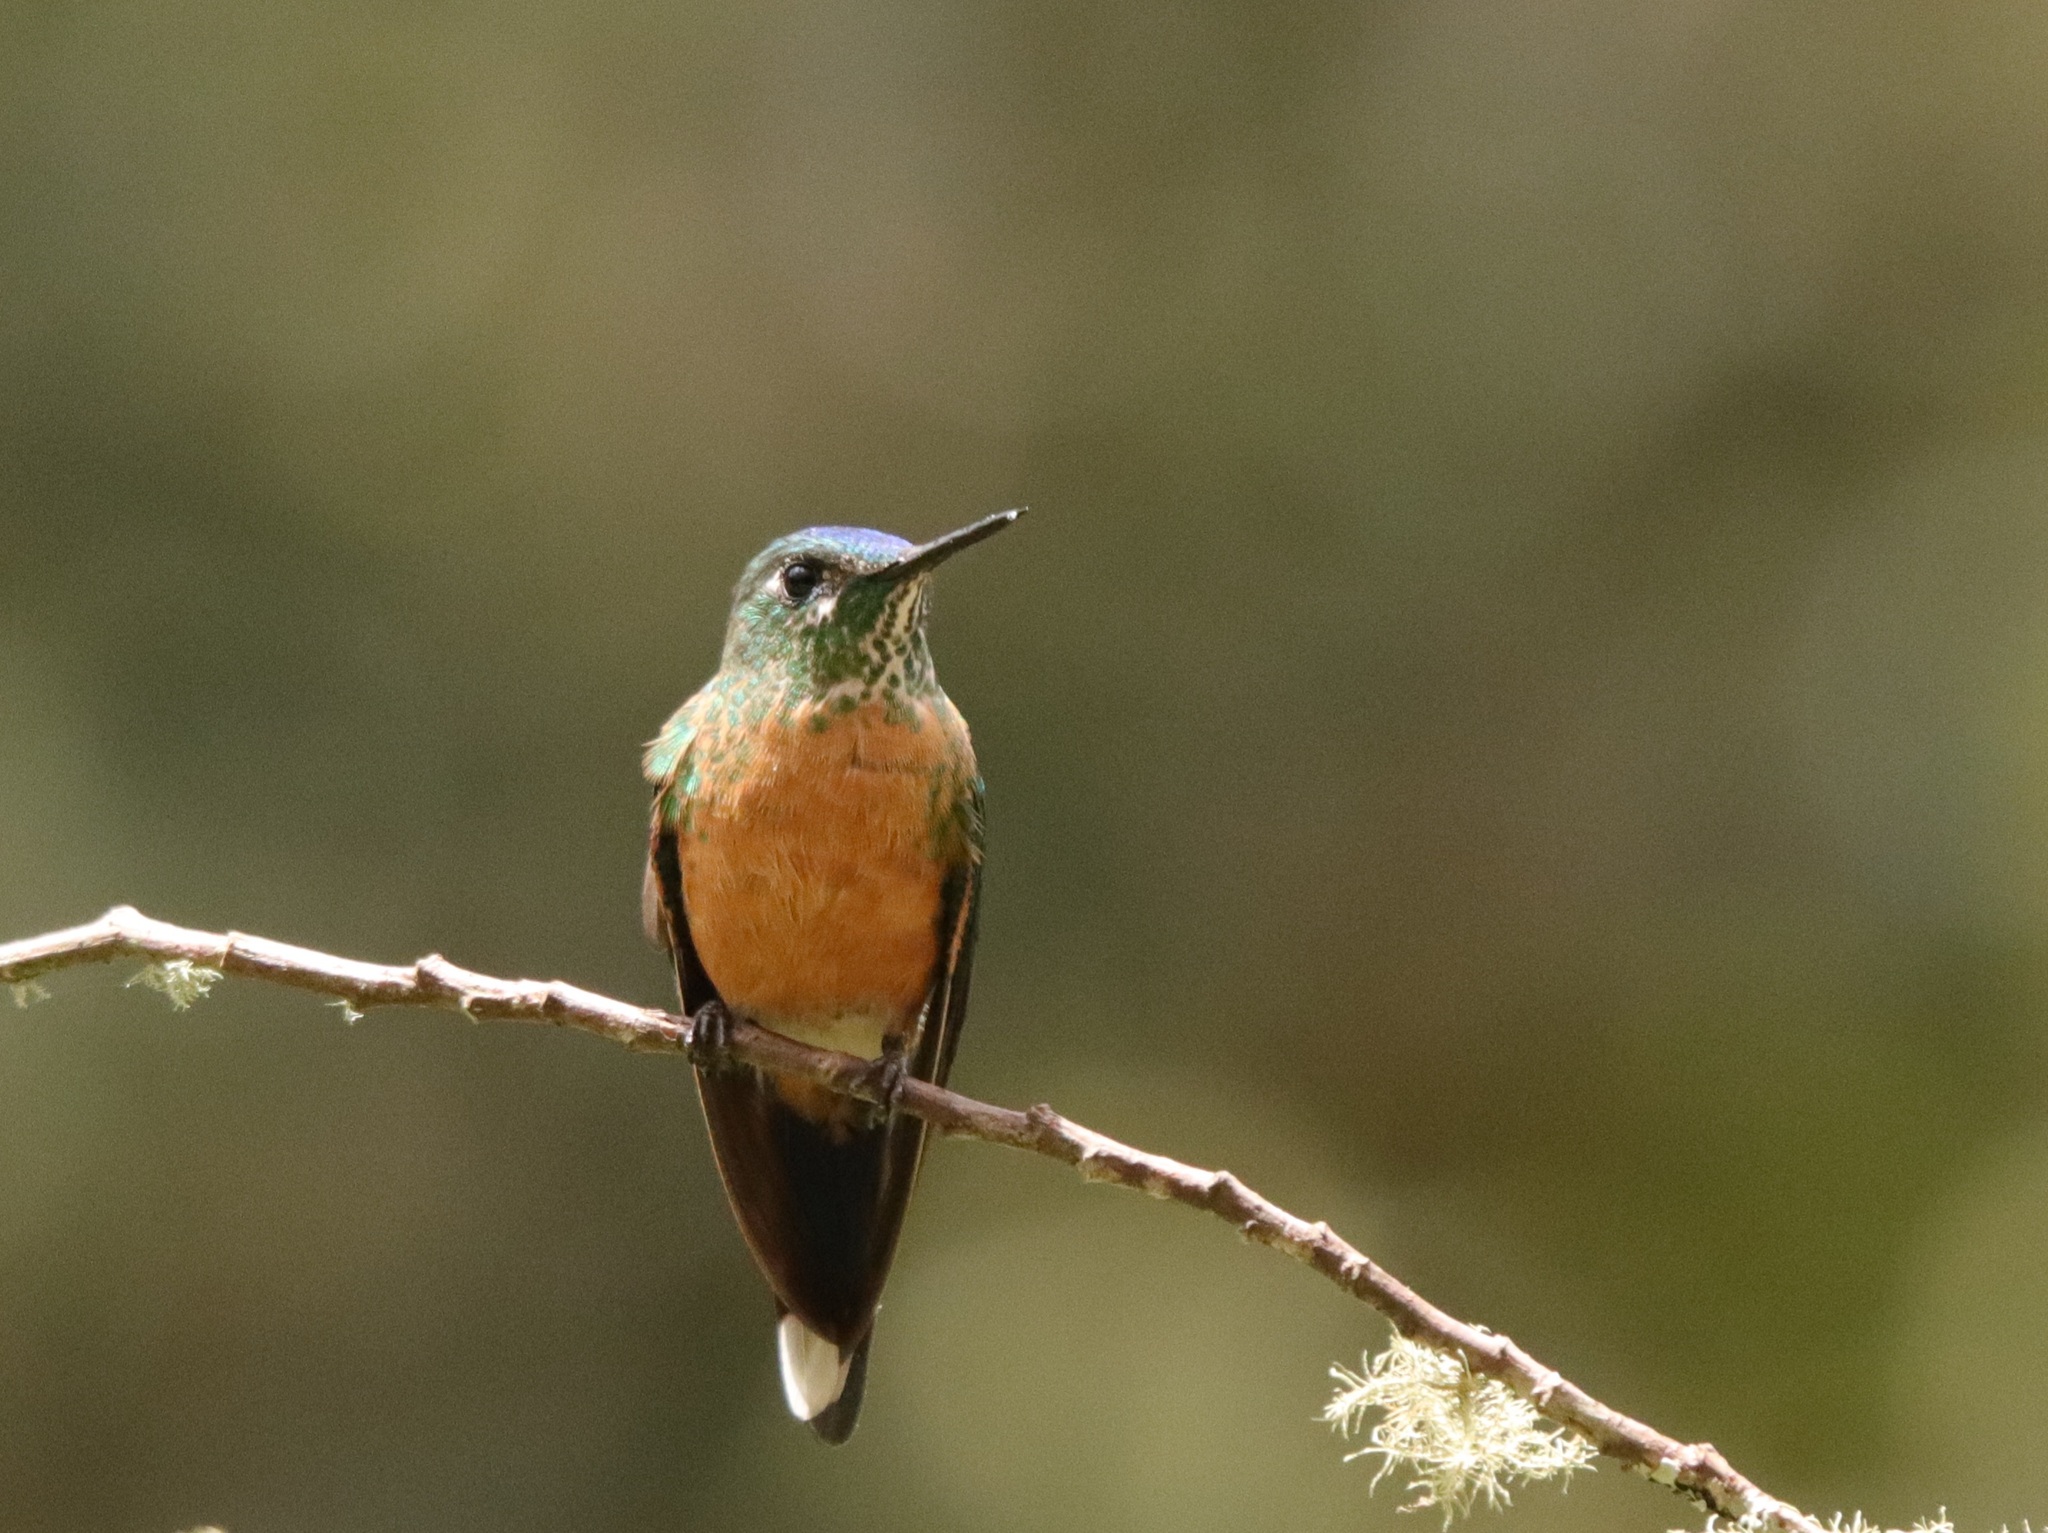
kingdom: Animalia
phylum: Chordata
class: Aves
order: Apodiformes
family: Trochilidae
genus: Aglaiocercus
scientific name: Aglaiocercus kingii
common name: Long-tailed sylph
